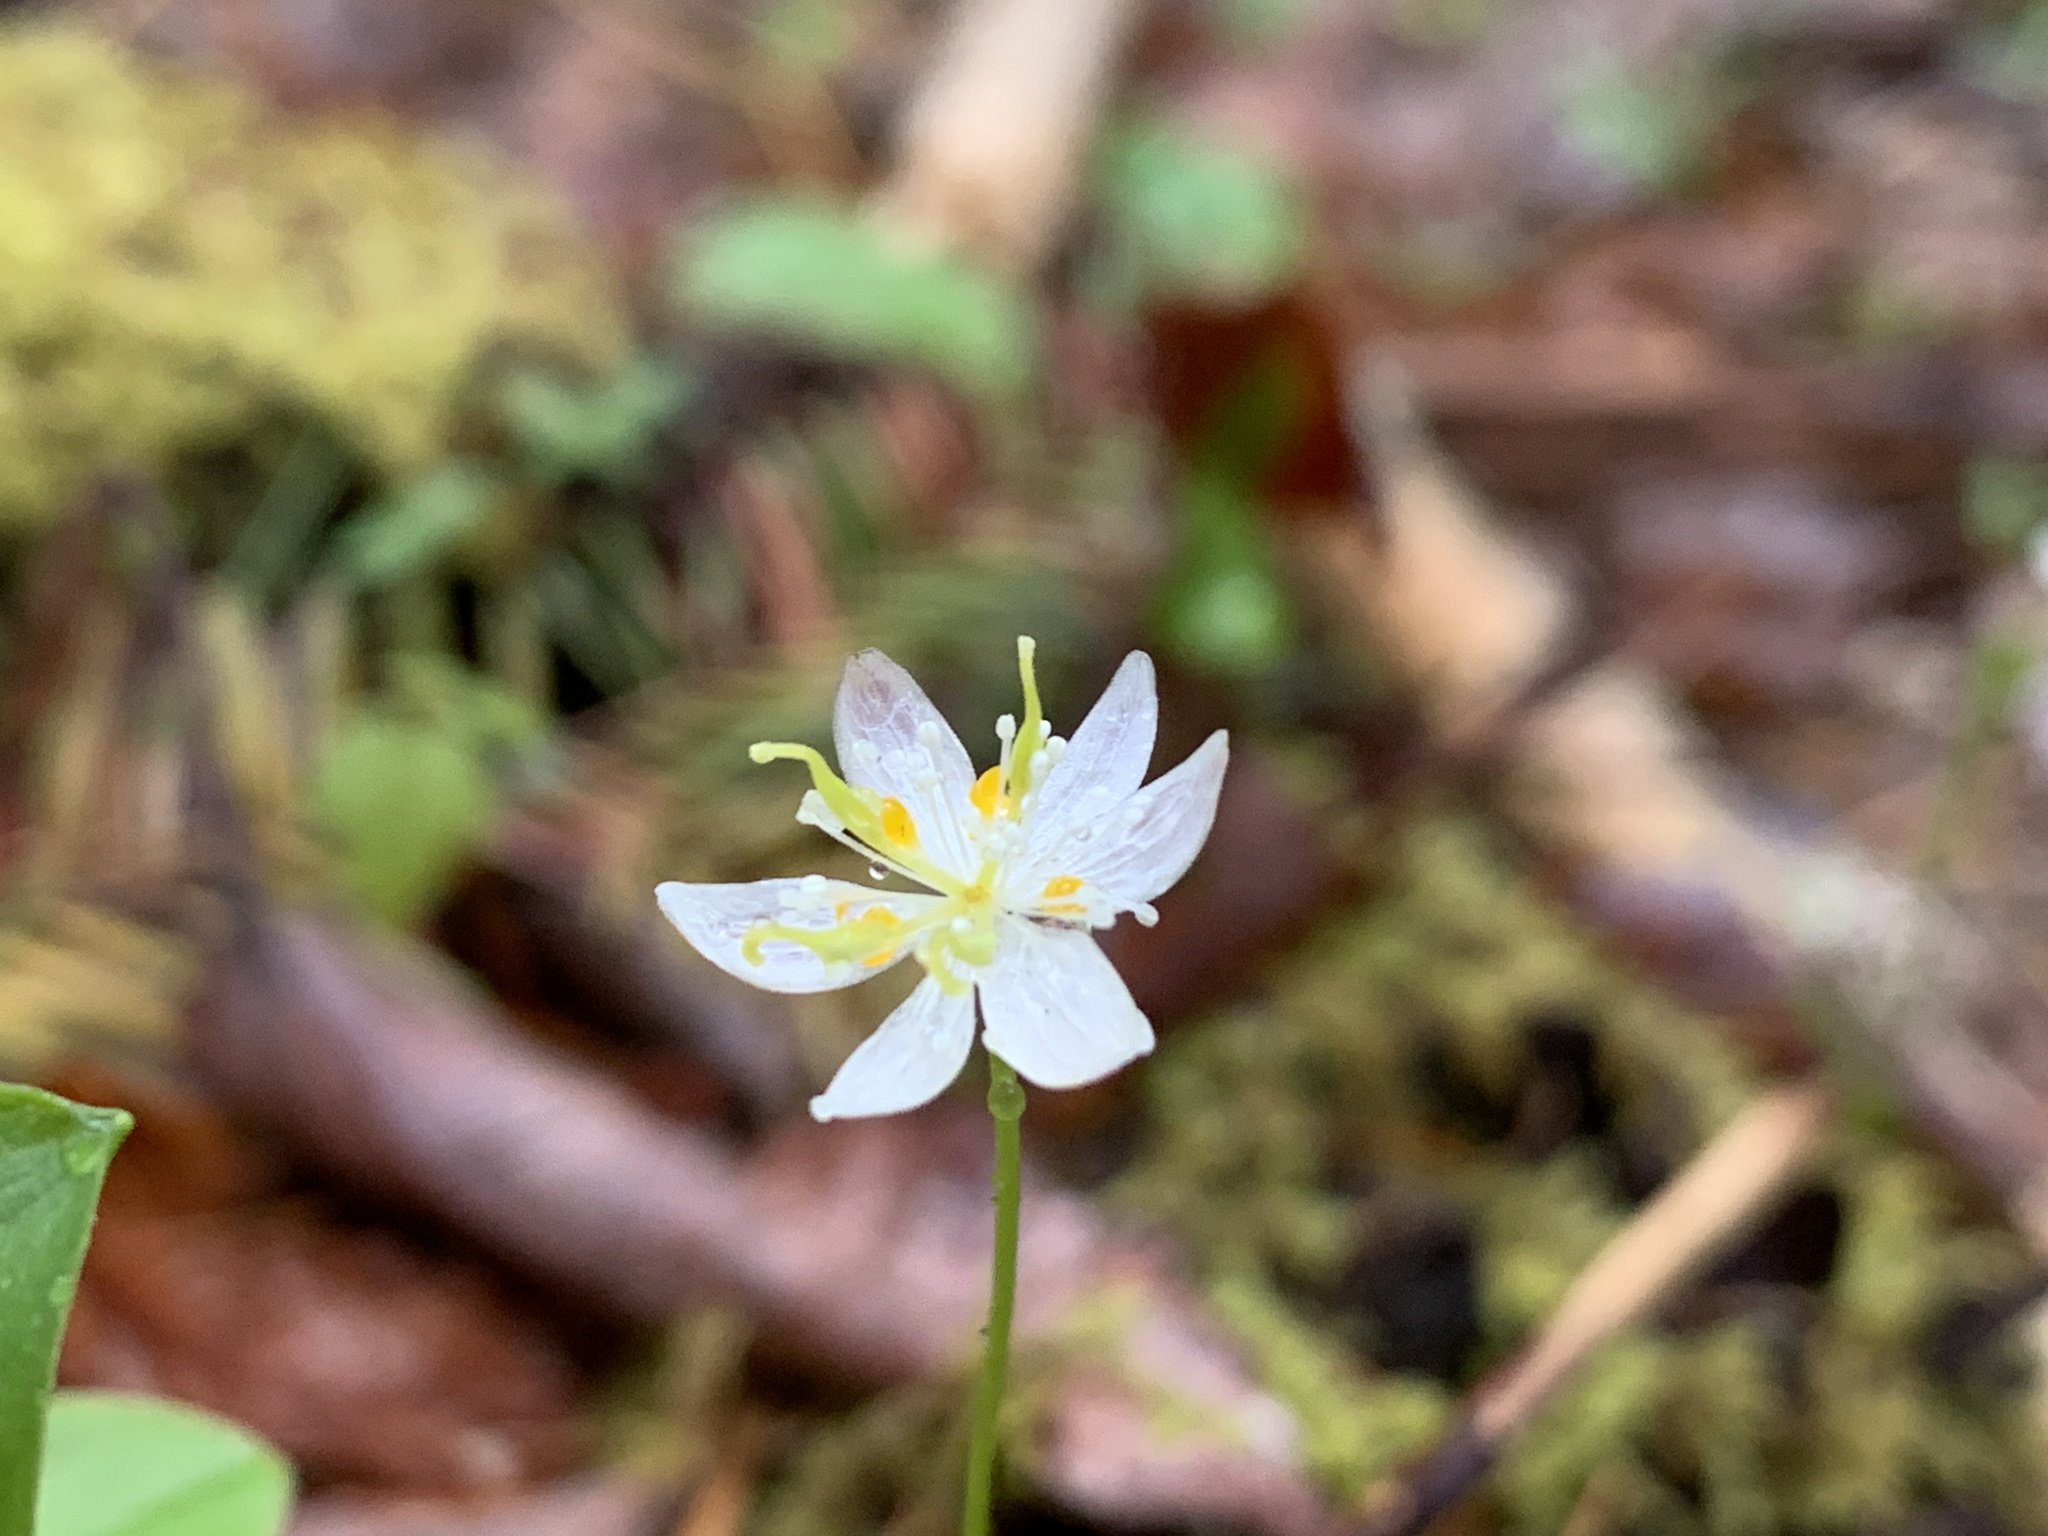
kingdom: Plantae
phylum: Tracheophyta
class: Magnoliopsida
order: Ranunculales
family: Ranunculaceae
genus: Coptis
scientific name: Coptis trifolia
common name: Canker-root
